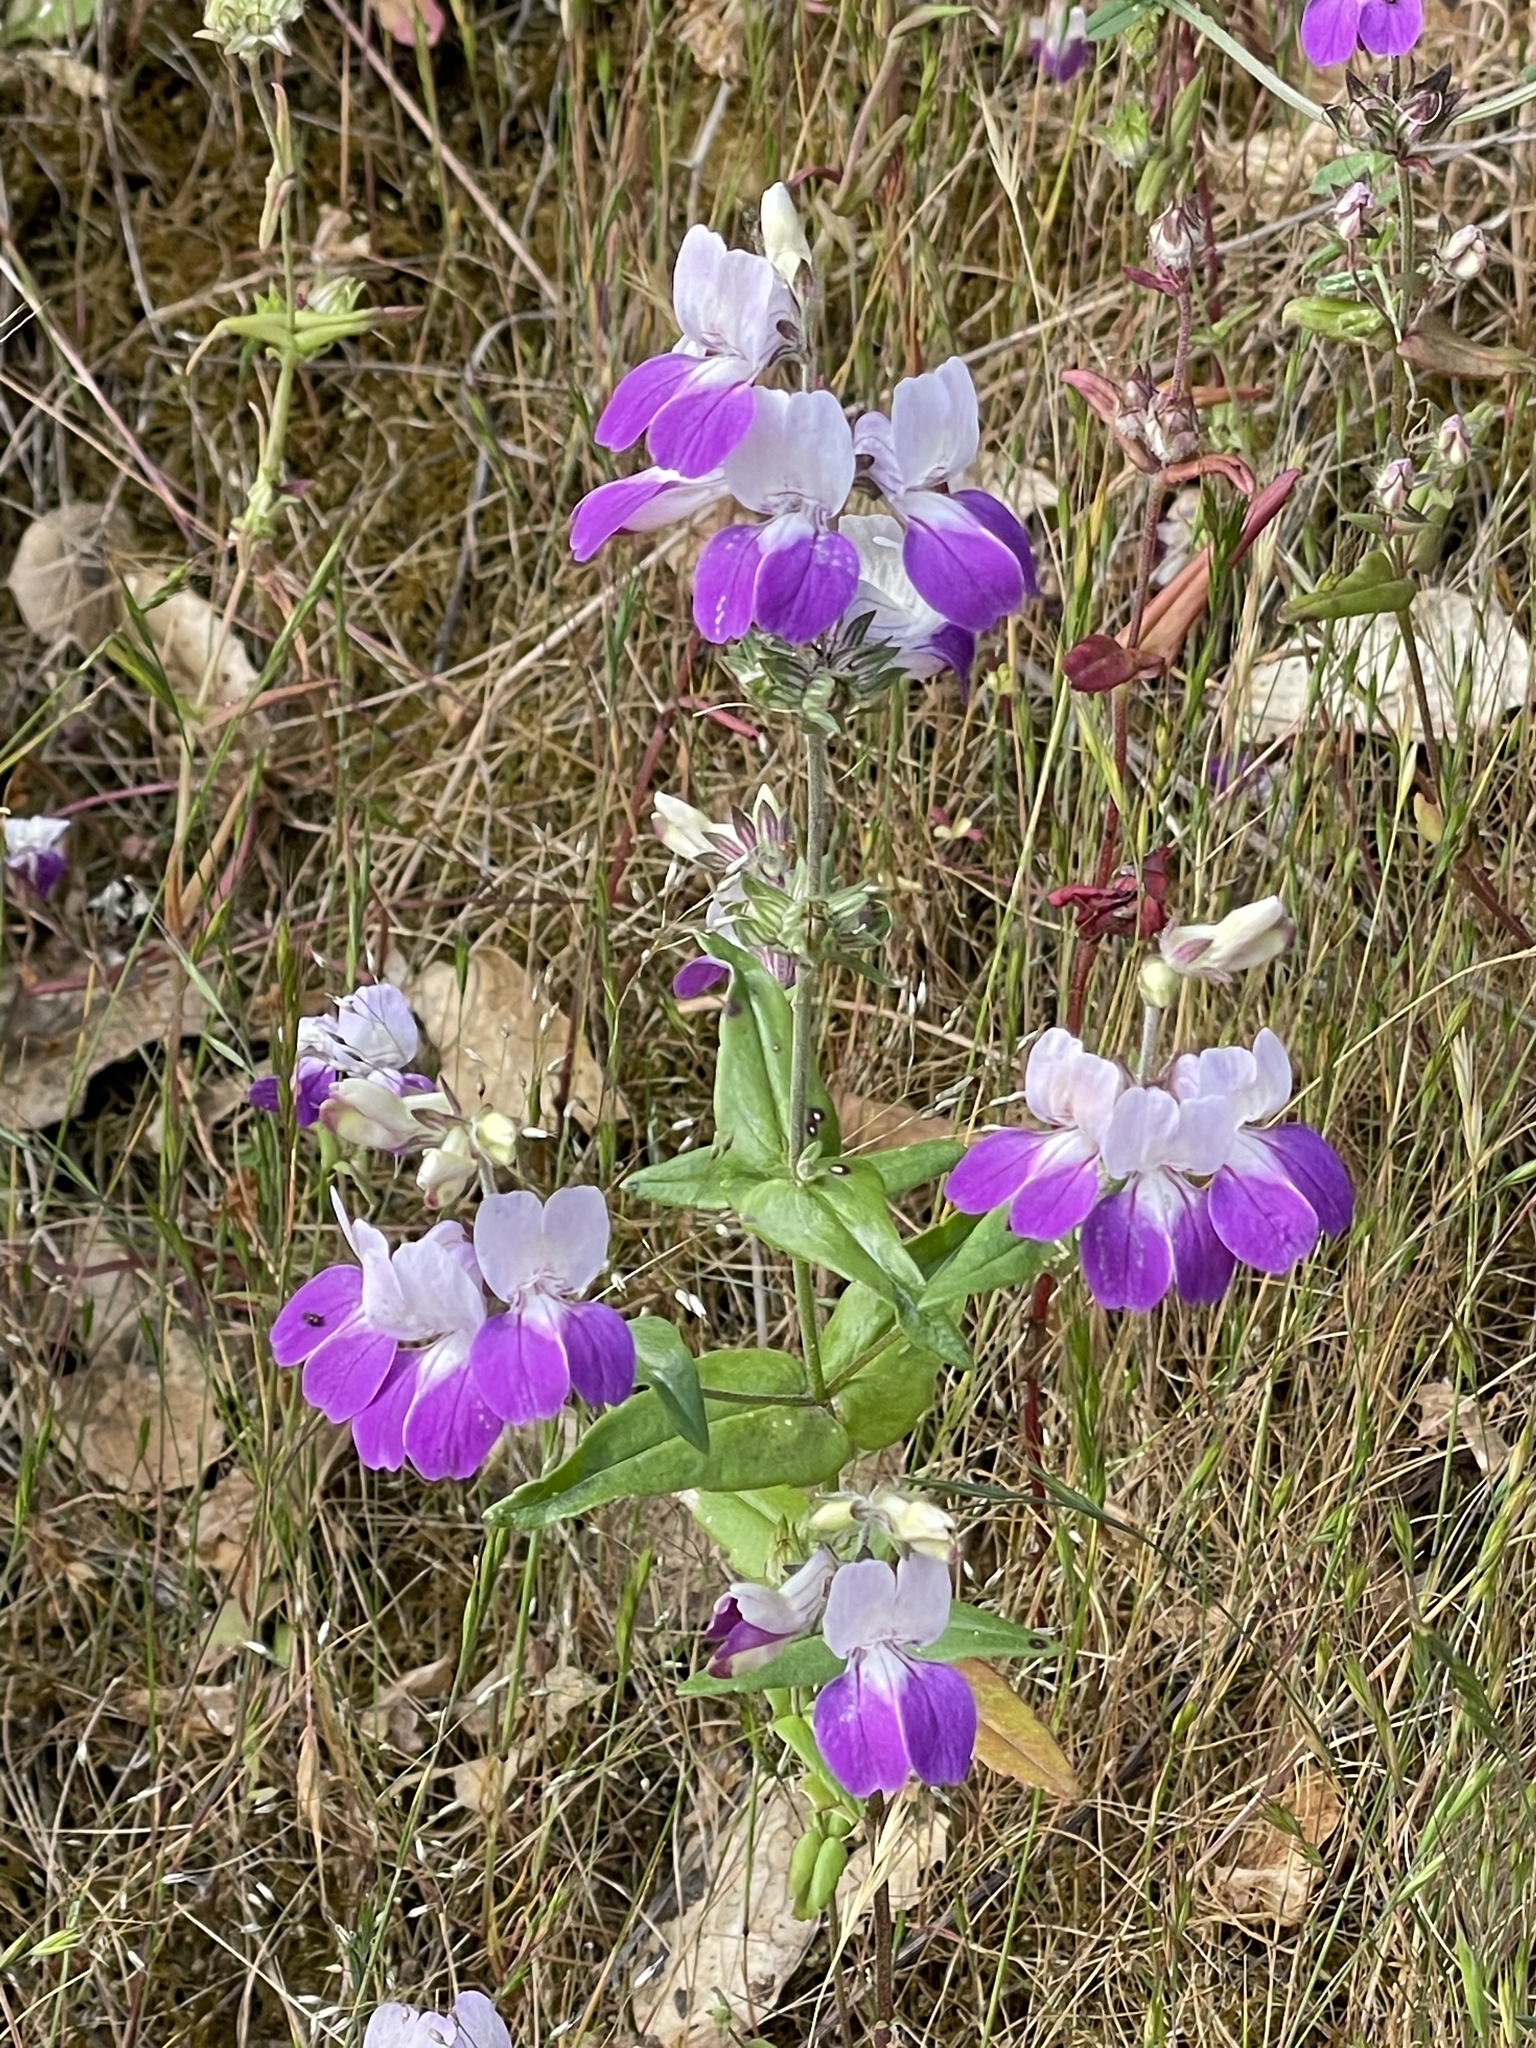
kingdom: Plantae
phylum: Tracheophyta
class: Magnoliopsida
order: Lamiales
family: Plantaginaceae
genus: Collinsia
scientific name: Collinsia heterophylla
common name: Chinese-houses
